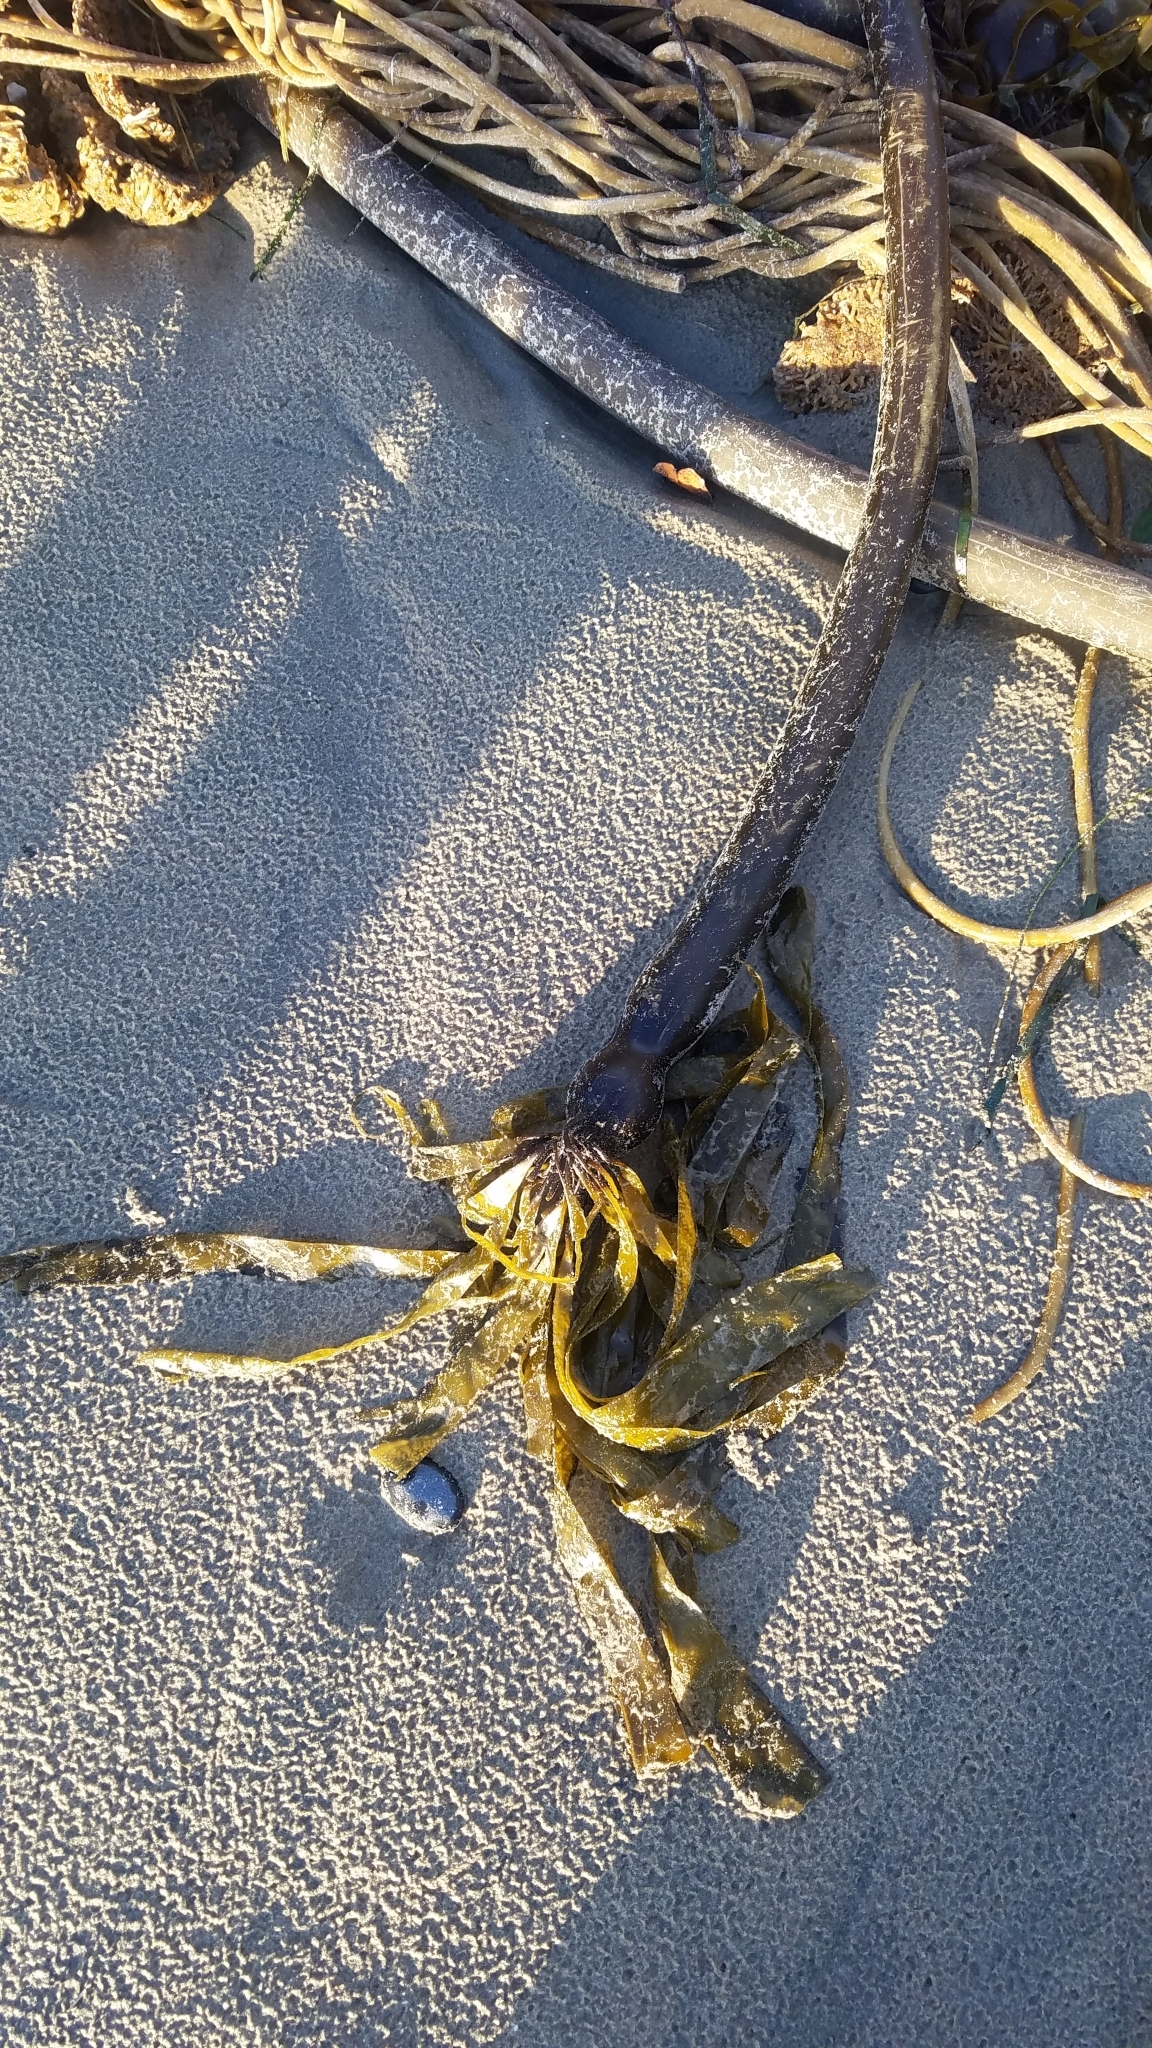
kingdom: Chromista
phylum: Ochrophyta
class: Phaeophyceae
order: Laminariales
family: Laminariaceae
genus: Nereocystis
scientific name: Nereocystis luetkeana
